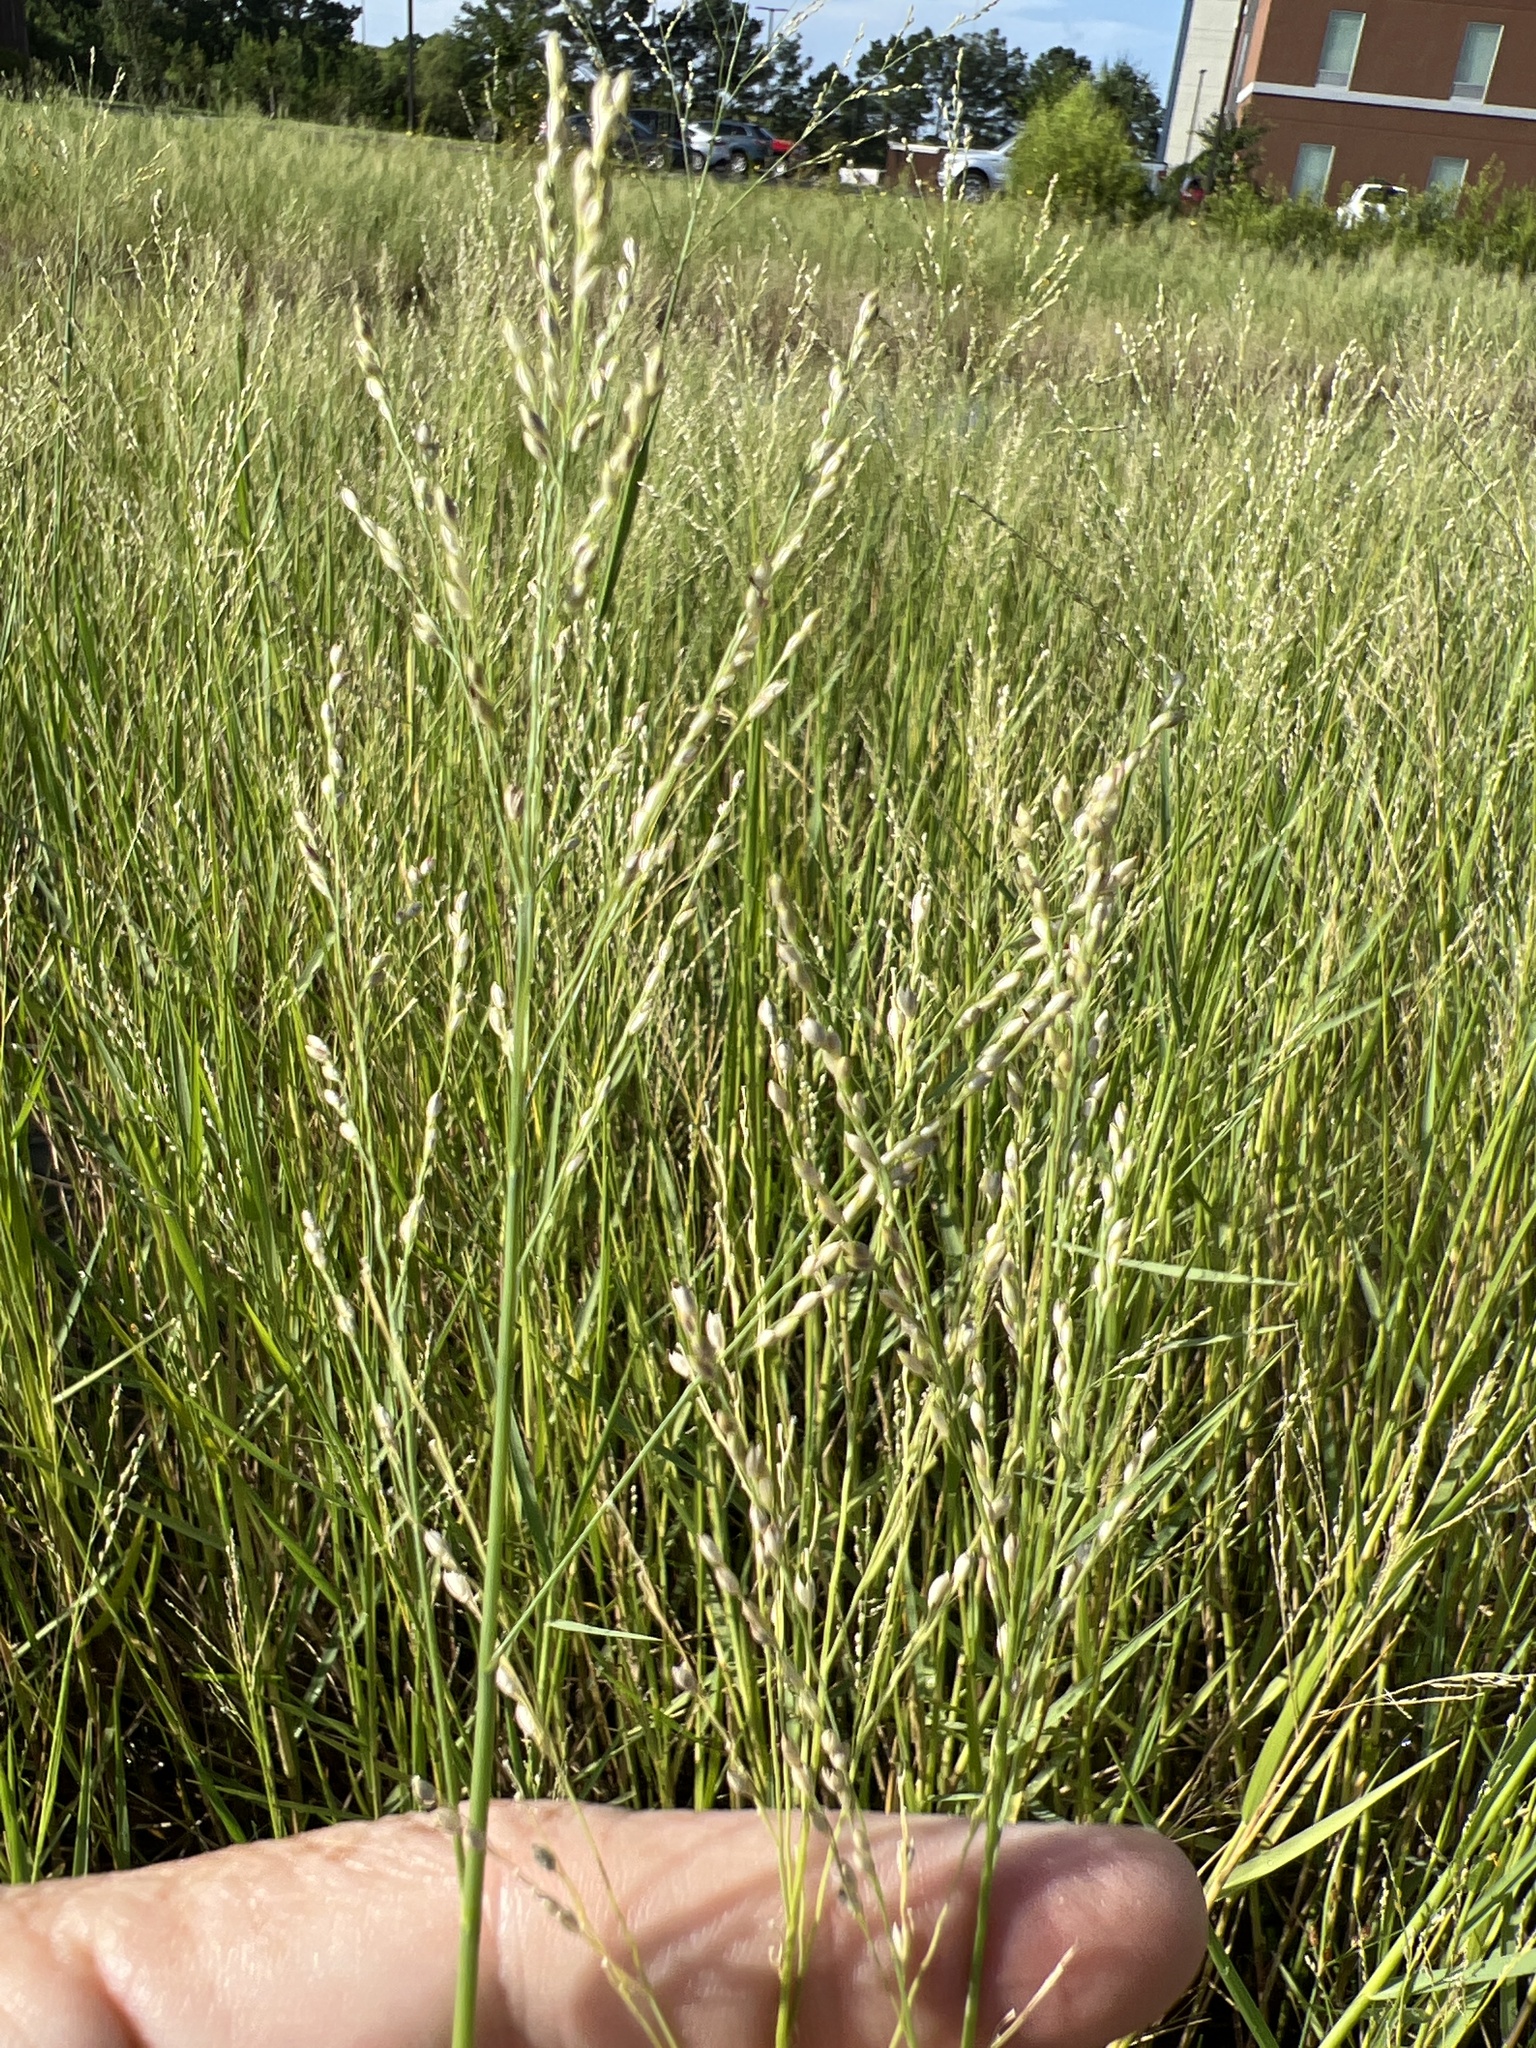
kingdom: Plantae
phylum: Tracheophyta
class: Liliopsida
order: Poales
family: Poaceae
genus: Panicum
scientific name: Panicum repens
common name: Torpedo grass
